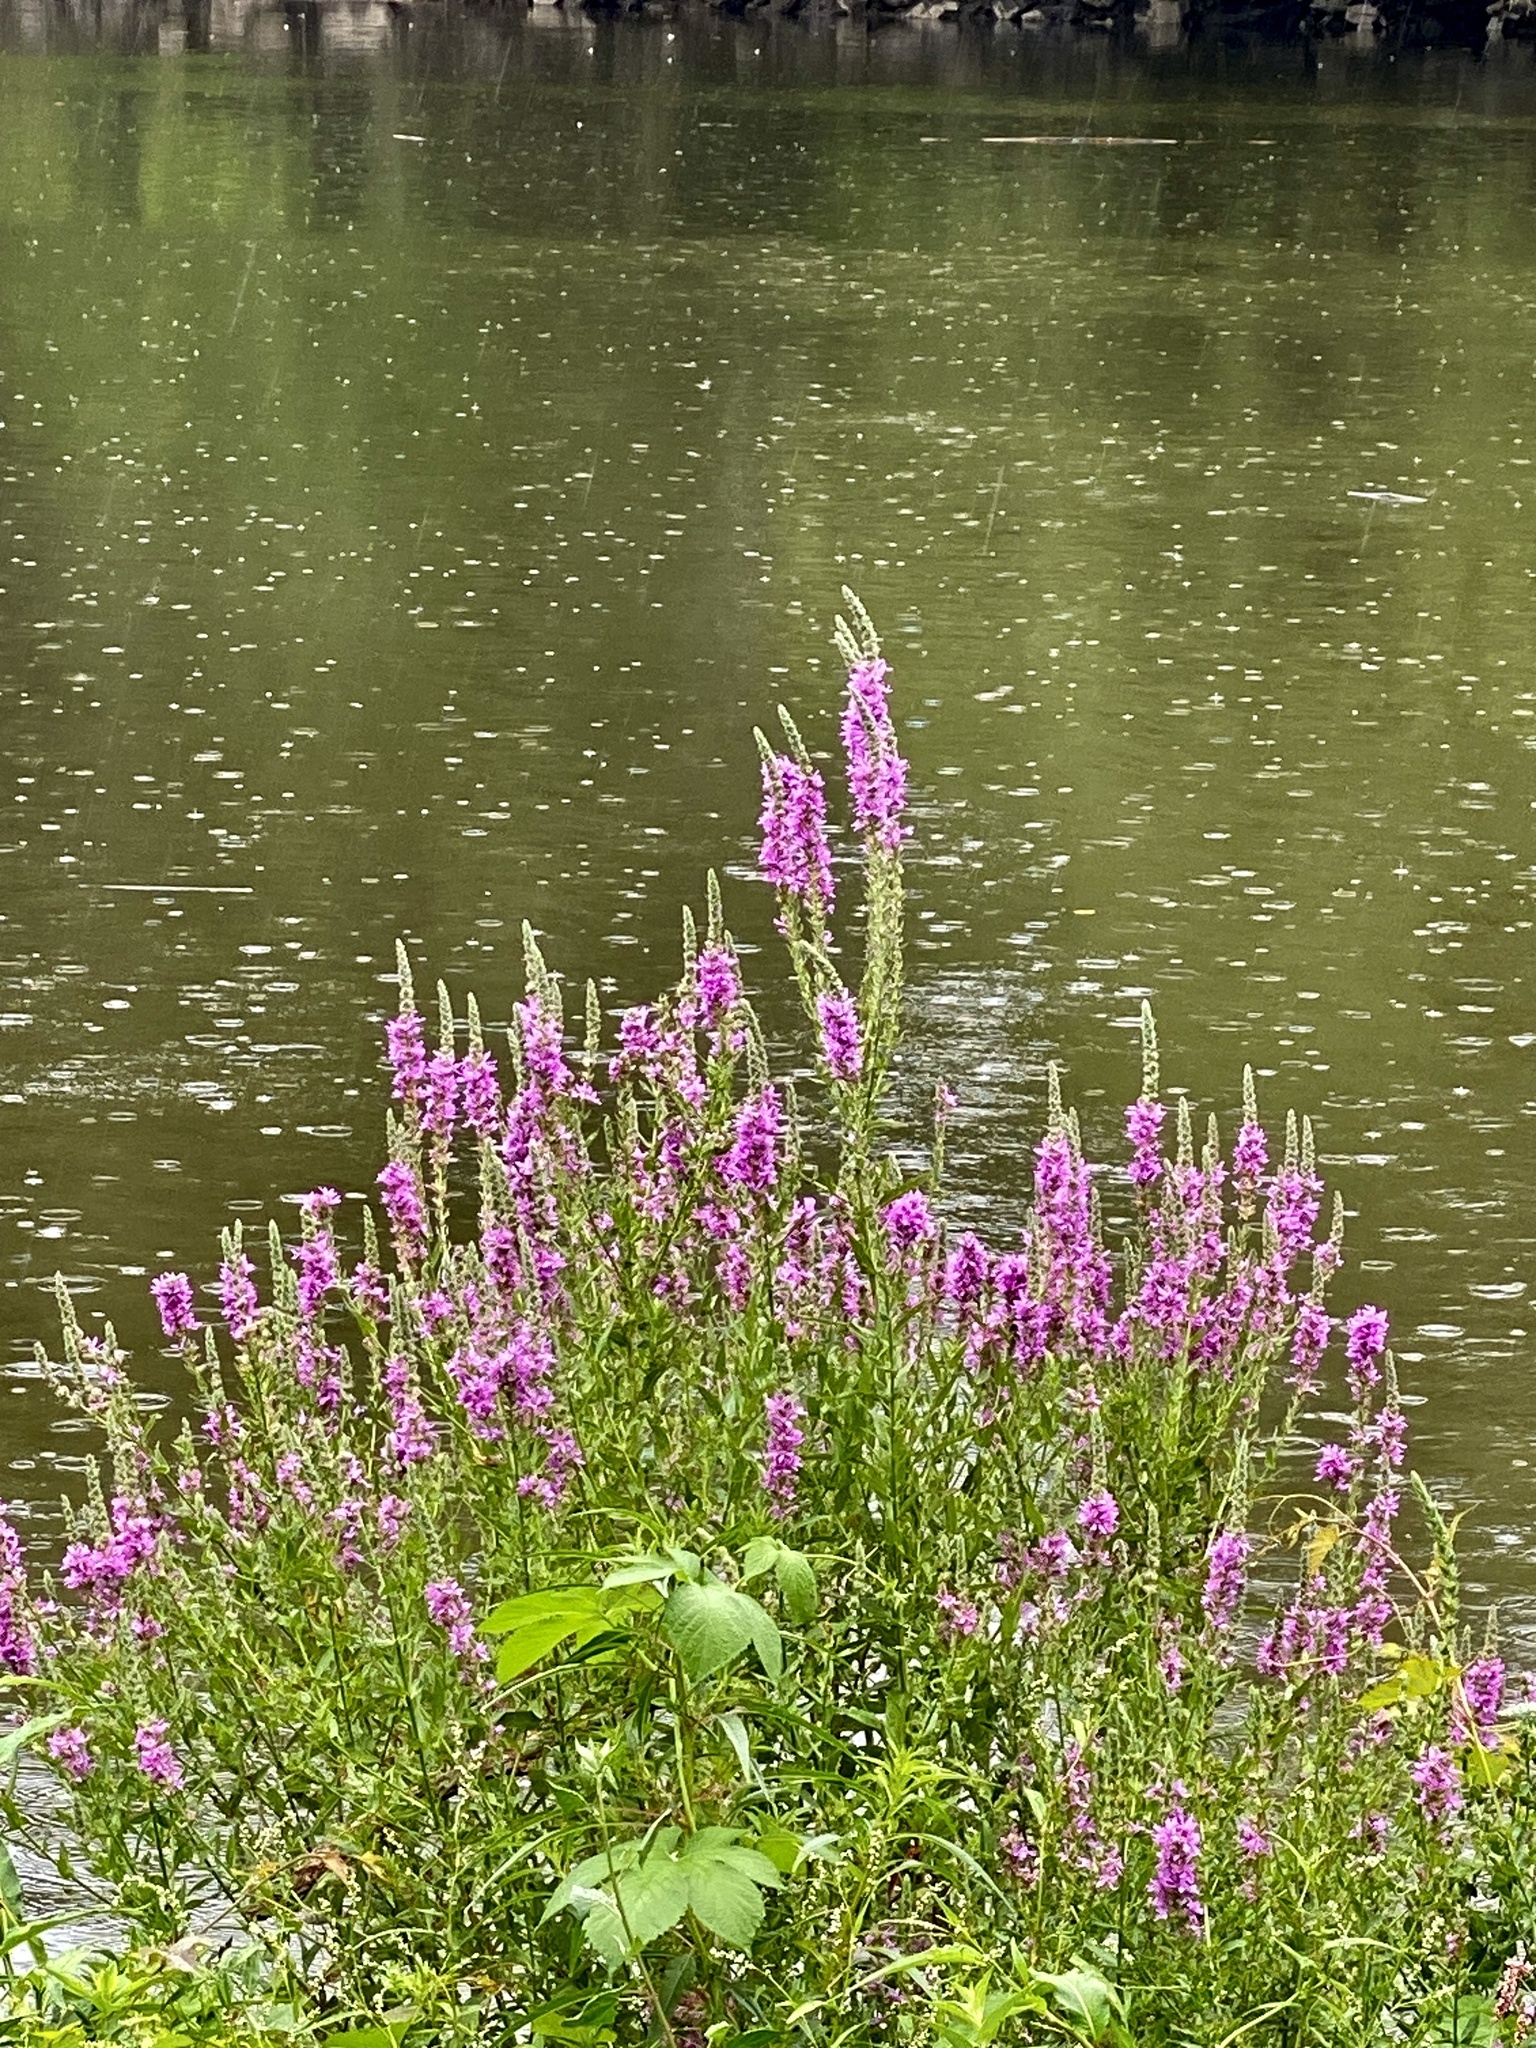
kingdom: Plantae
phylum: Tracheophyta
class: Magnoliopsida
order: Myrtales
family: Lythraceae
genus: Lythrum
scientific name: Lythrum salicaria
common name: Purple loosestrife
